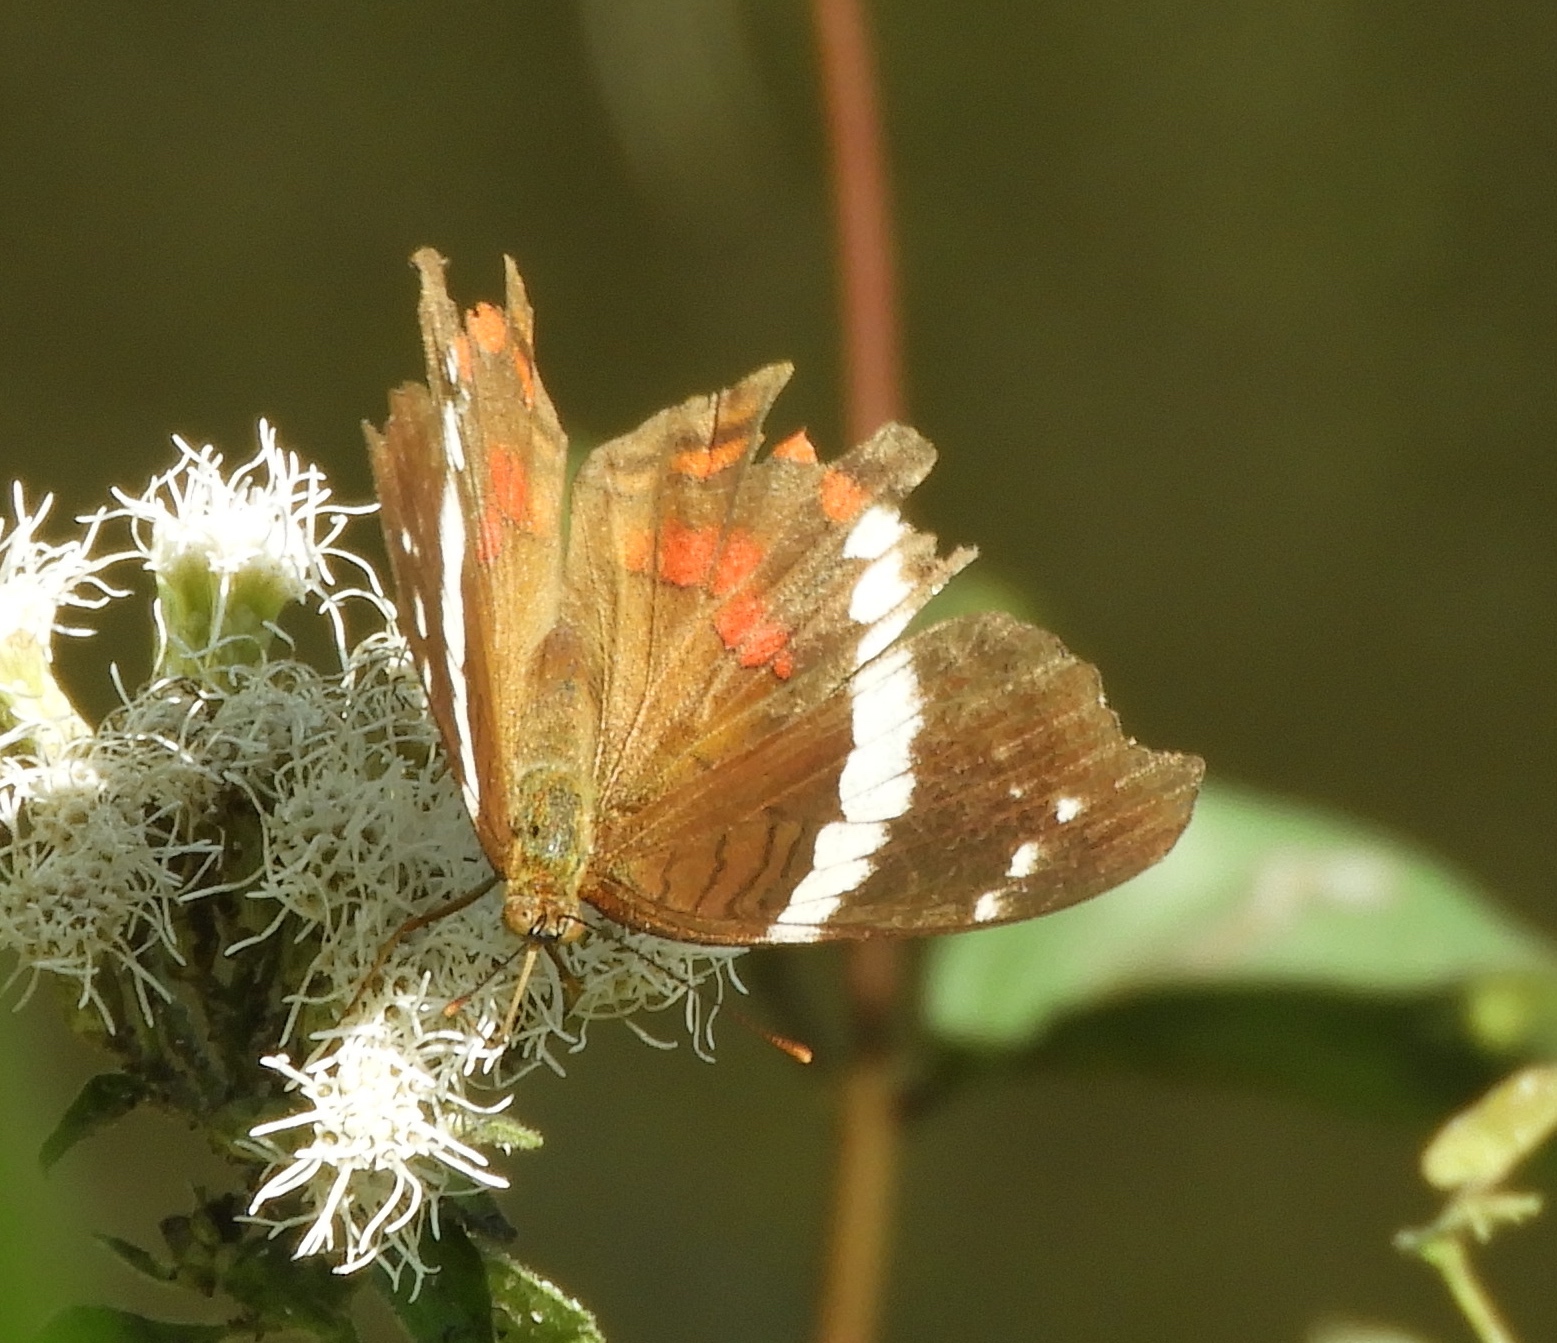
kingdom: Animalia
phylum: Arthropoda
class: Insecta
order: Lepidoptera
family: Nymphalidae
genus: Anartia
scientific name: Anartia fatima
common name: Banded peacock
